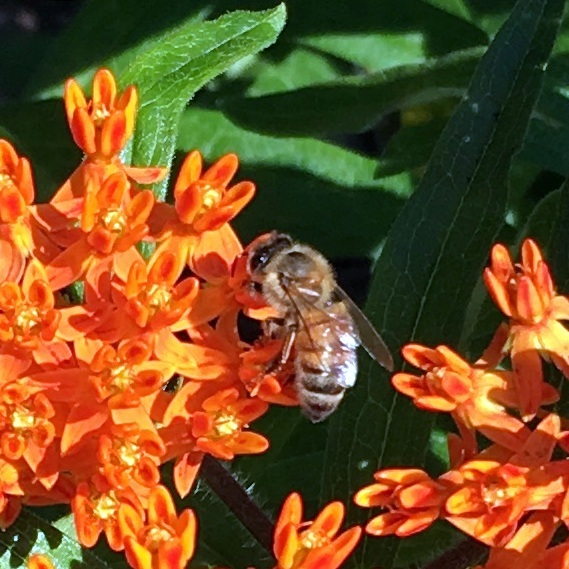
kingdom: Animalia
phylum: Arthropoda
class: Insecta
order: Hymenoptera
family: Apidae
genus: Apis
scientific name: Apis mellifera
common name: Honey bee
